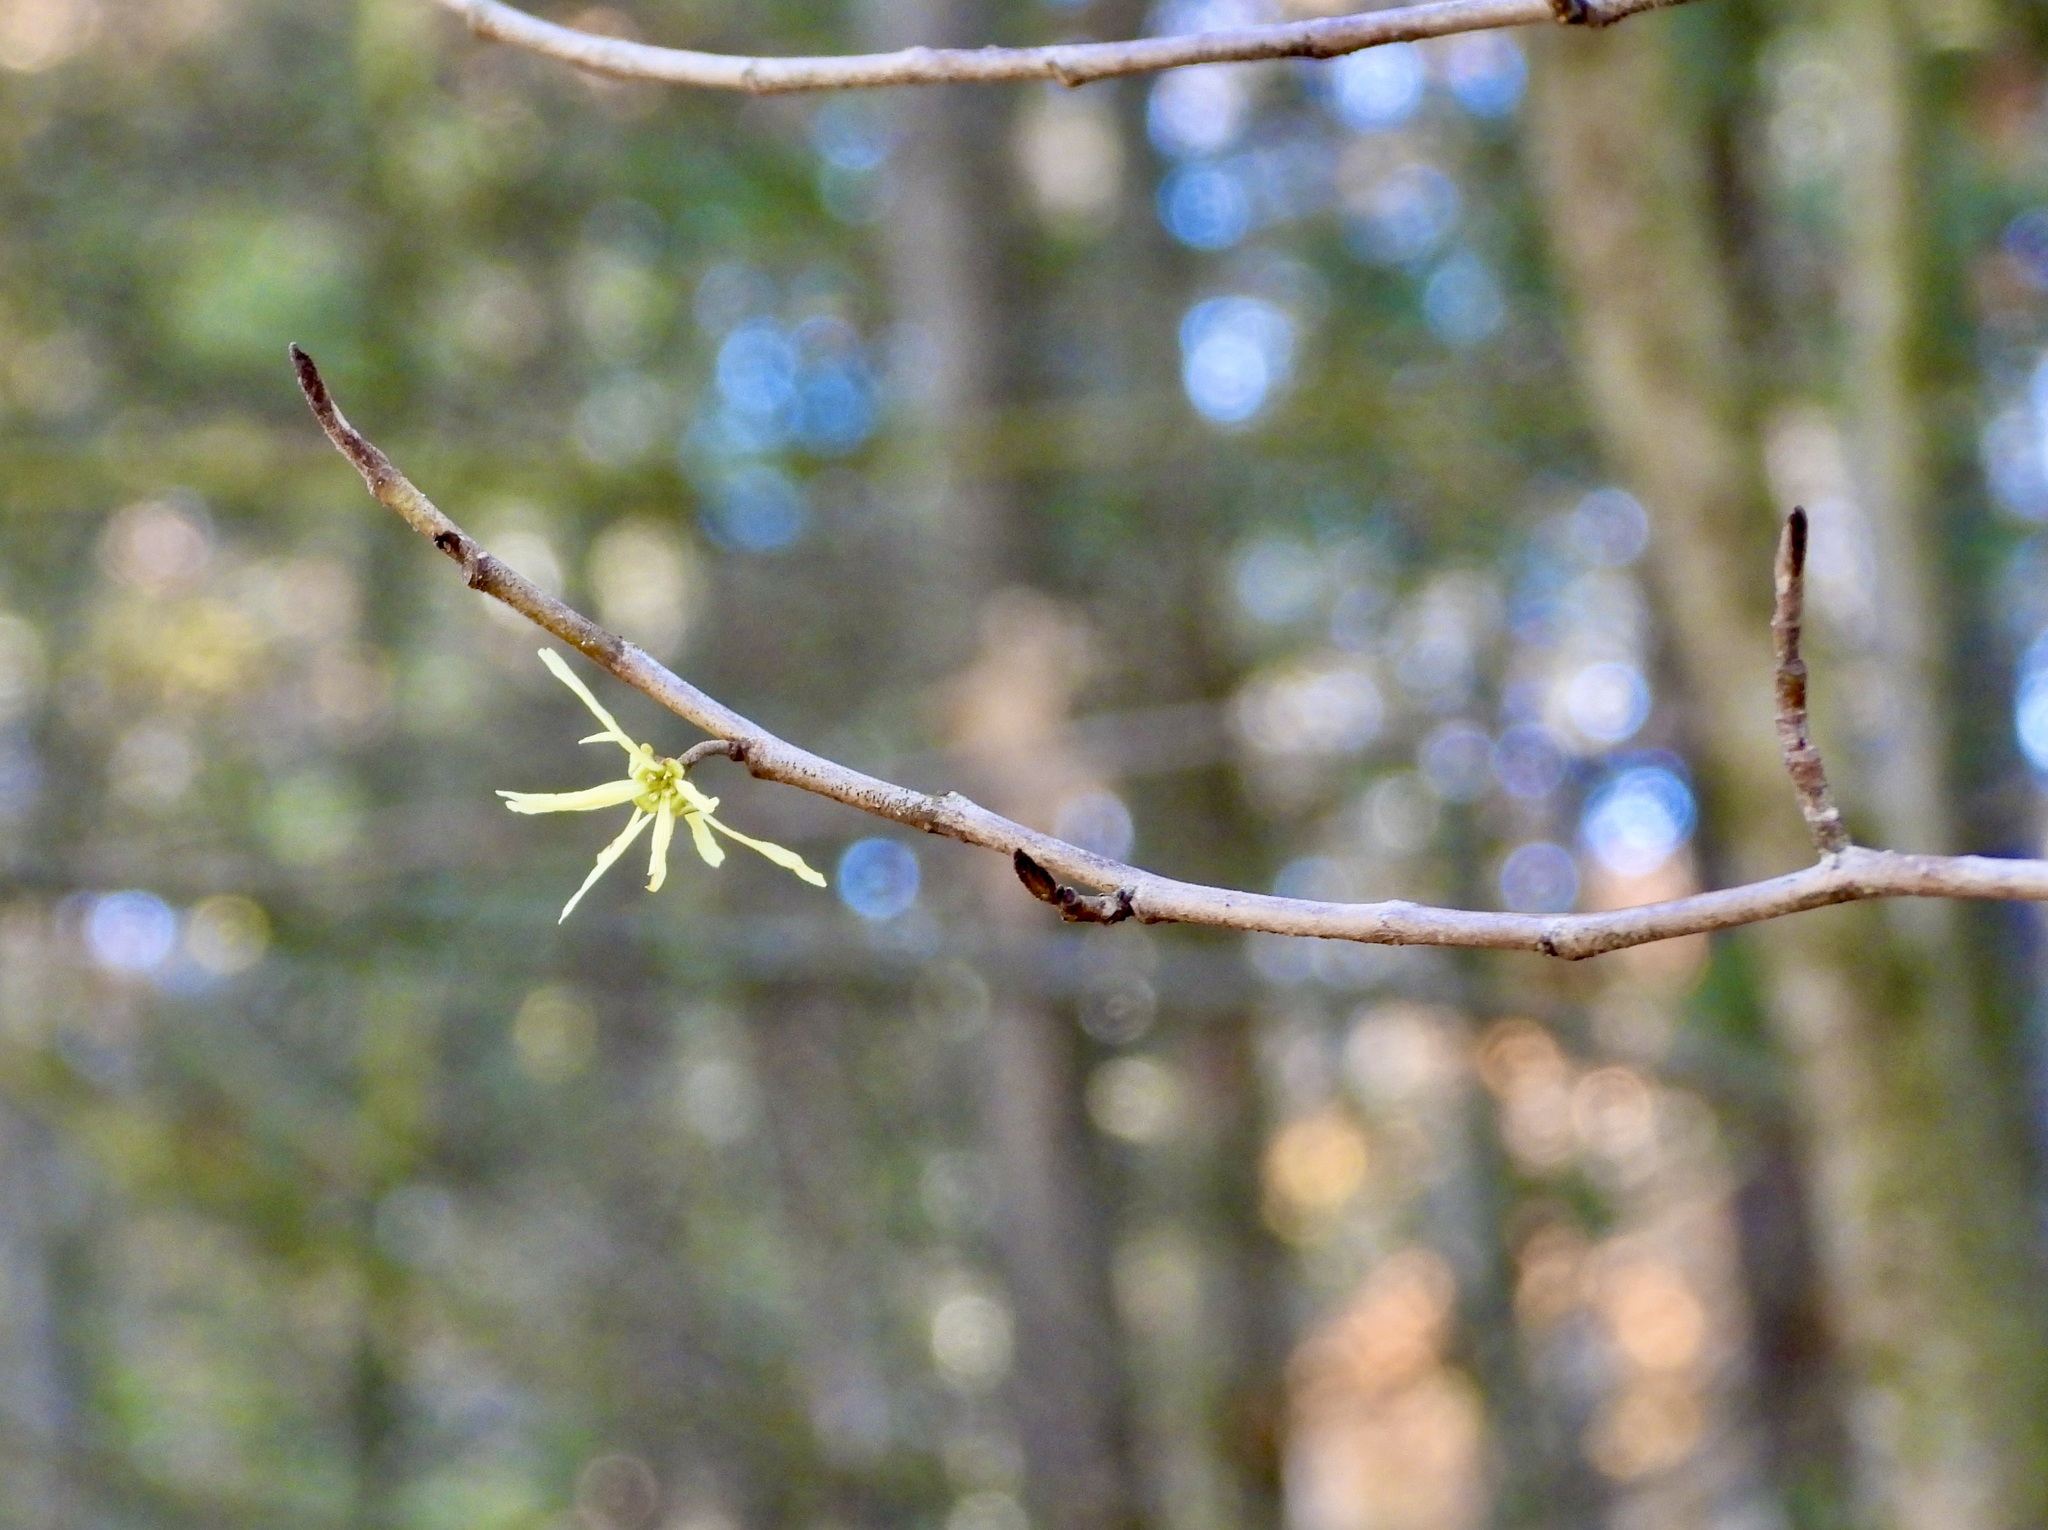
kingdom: Plantae
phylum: Tracheophyta
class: Magnoliopsida
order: Saxifragales
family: Hamamelidaceae
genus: Hamamelis
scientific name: Hamamelis virginiana
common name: Witch-hazel
